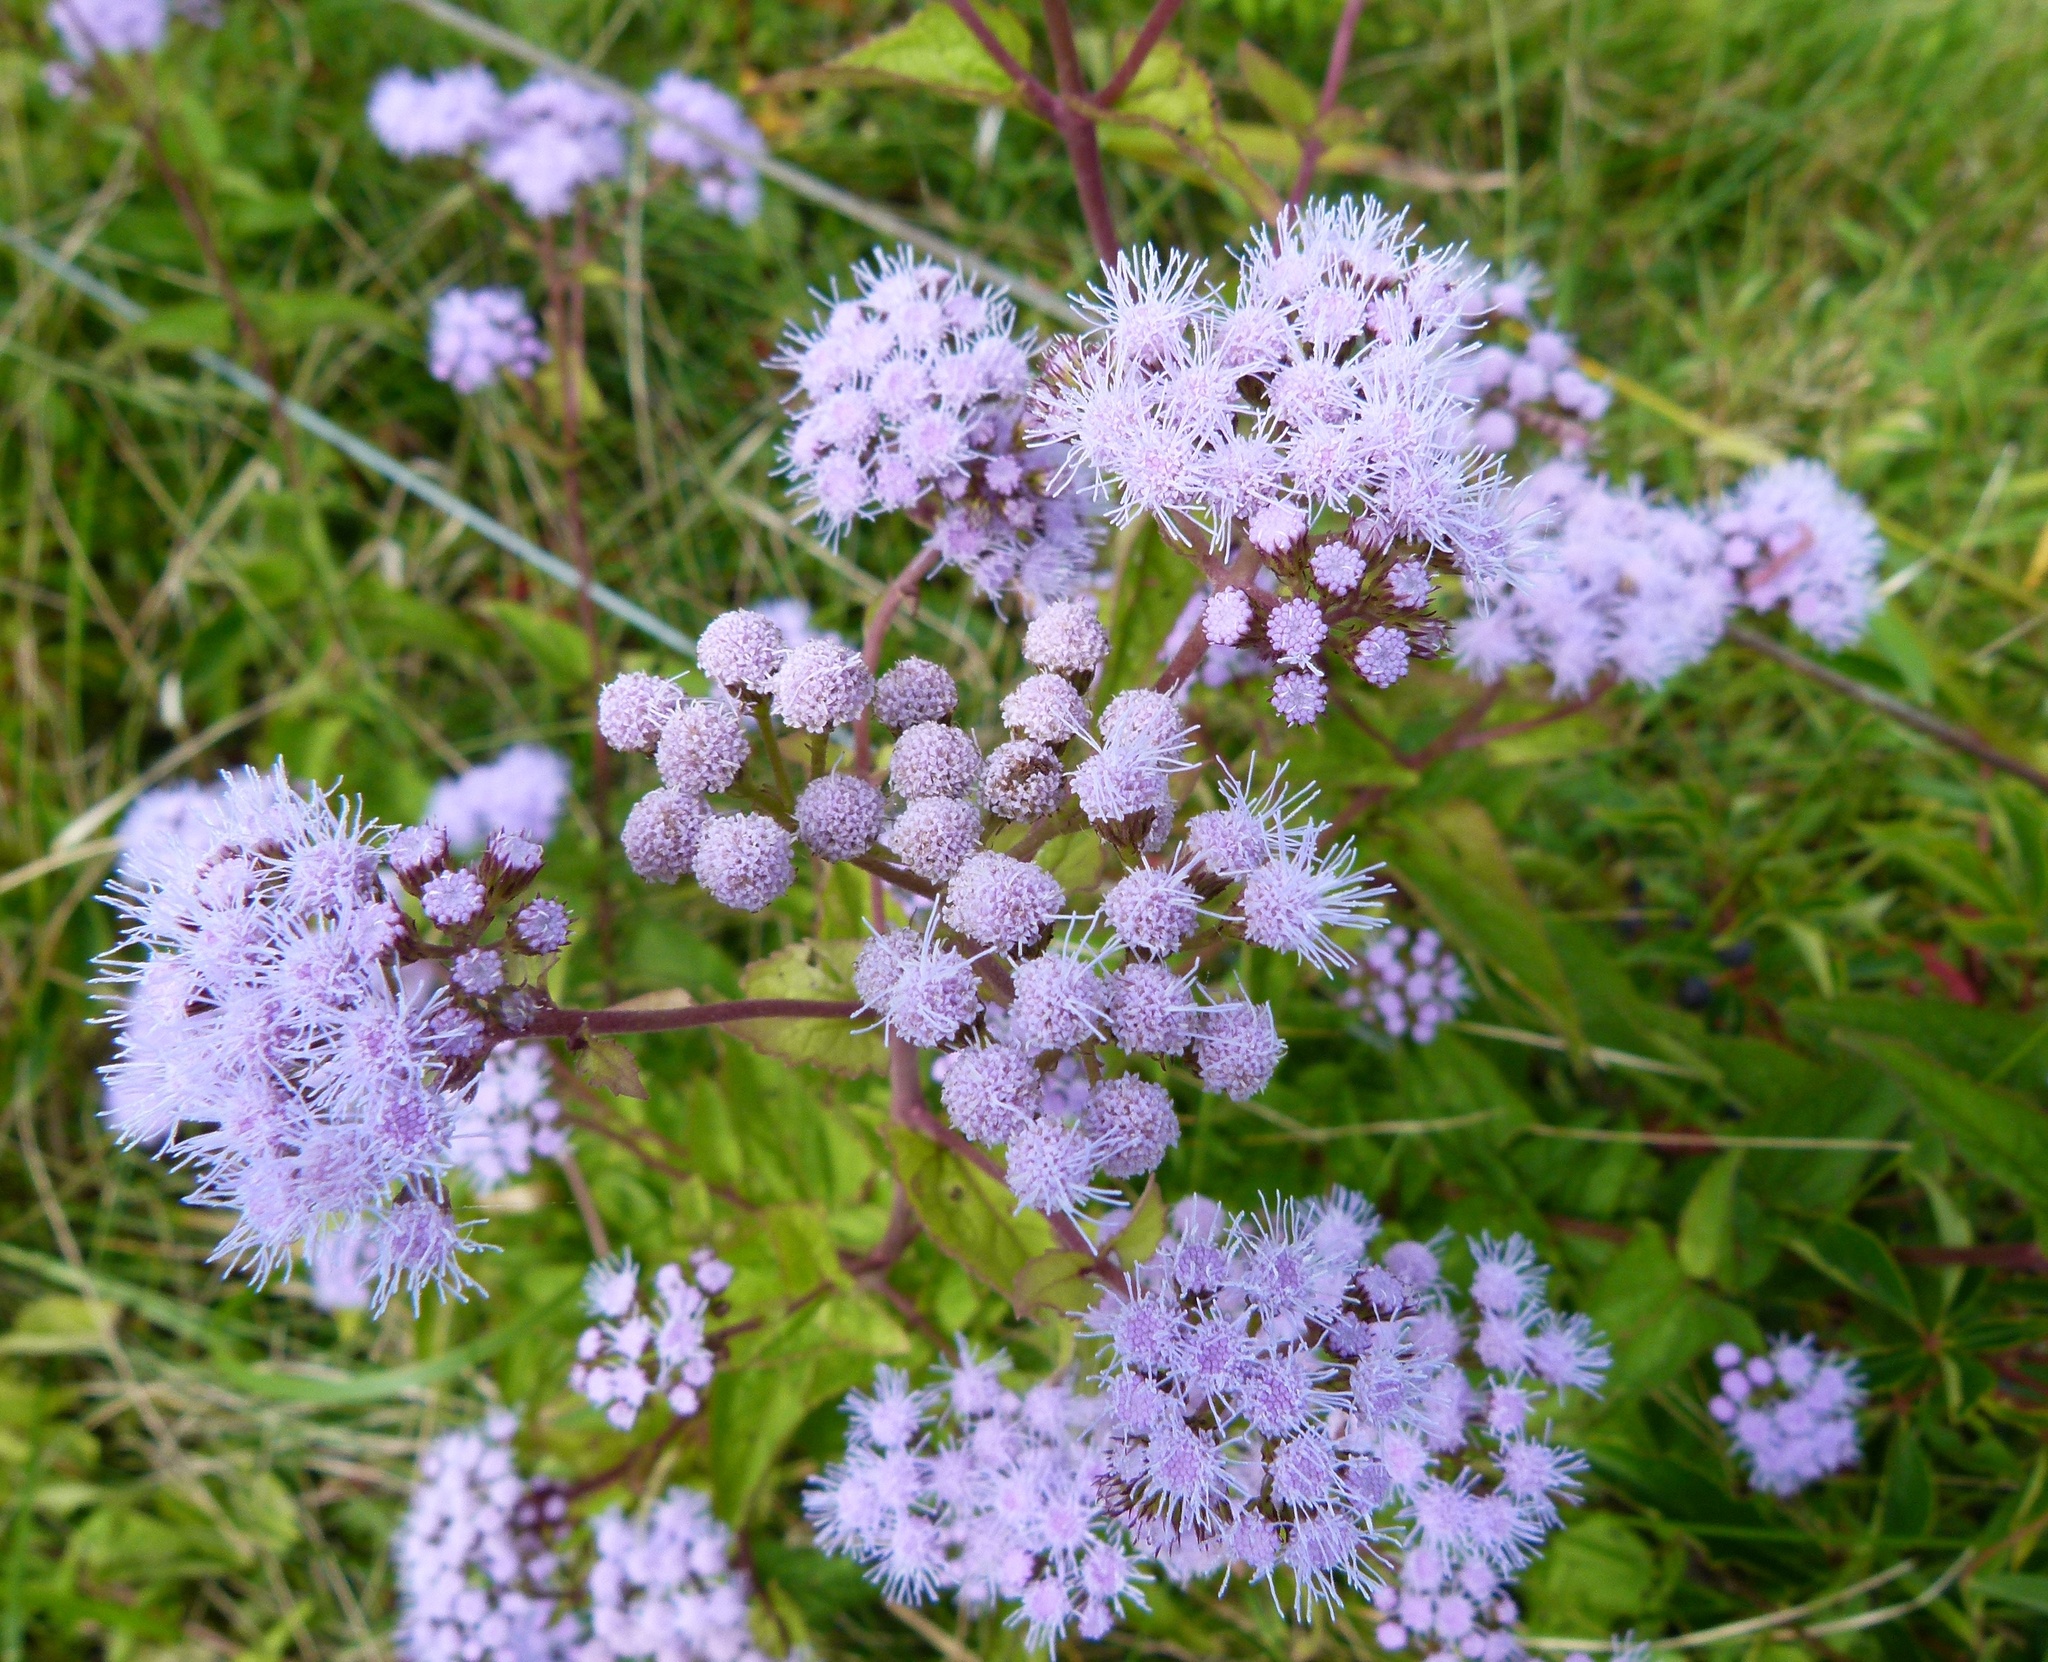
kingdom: Plantae
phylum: Tracheophyta
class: Magnoliopsida
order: Asterales
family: Asteraceae
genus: Conoclinium
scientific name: Conoclinium coelestinum
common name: Blue mistflower
